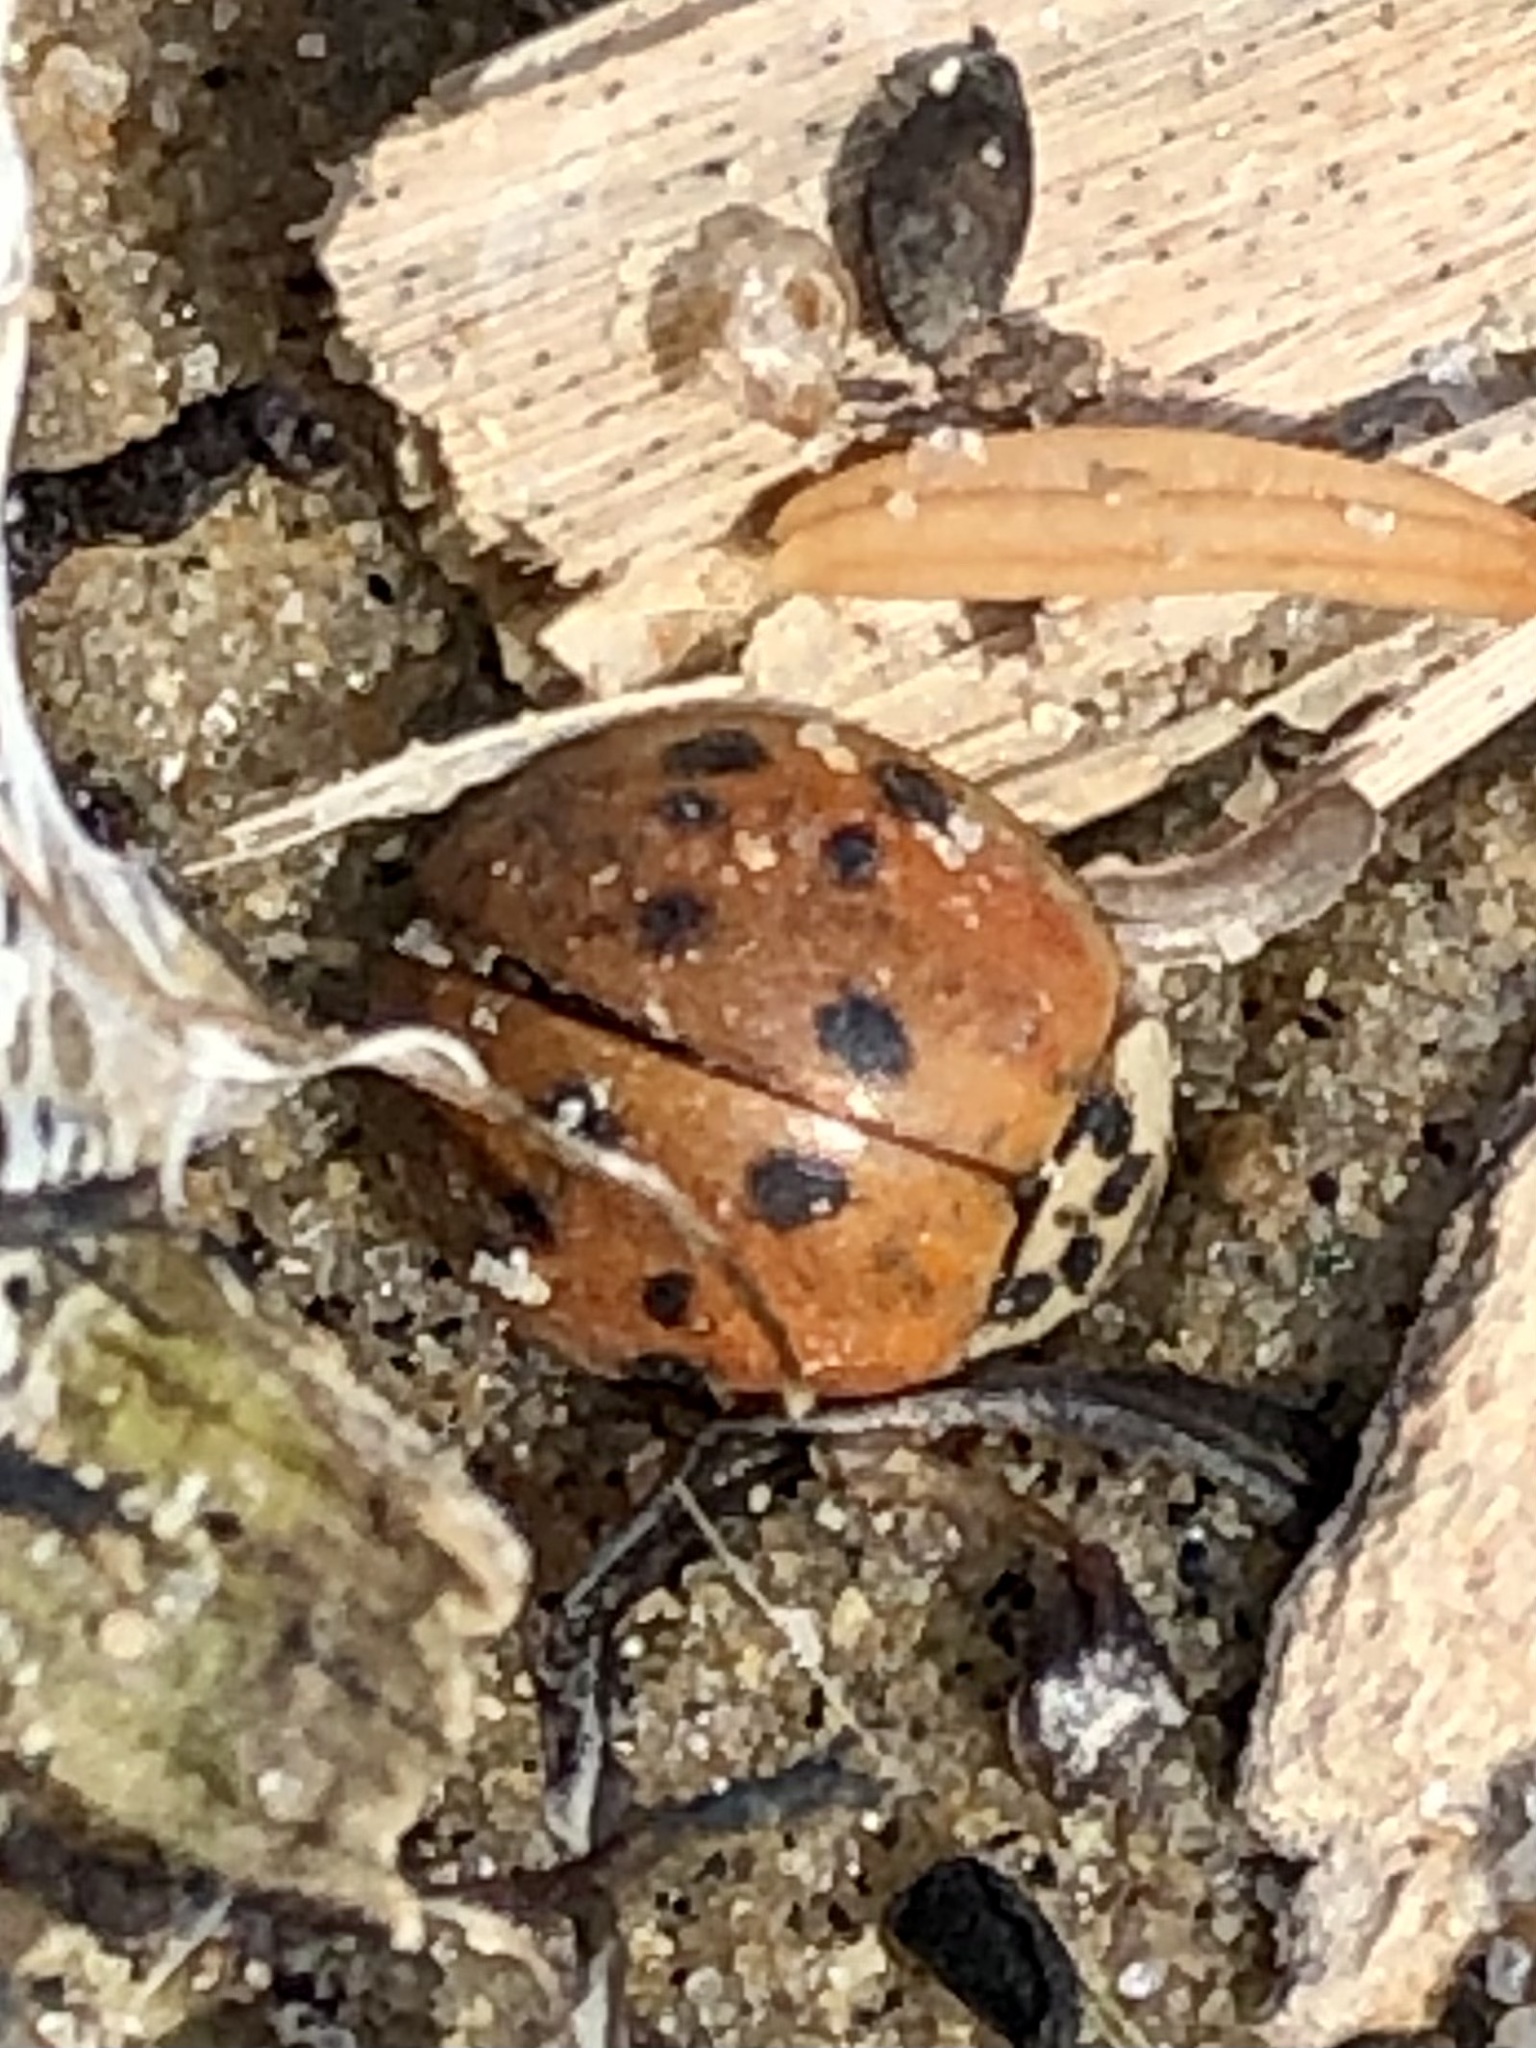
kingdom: Animalia
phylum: Arthropoda
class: Insecta
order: Coleoptera
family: Coccinellidae
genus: Harmonia
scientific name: Harmonia axyridis
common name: Harlequin ladybird
